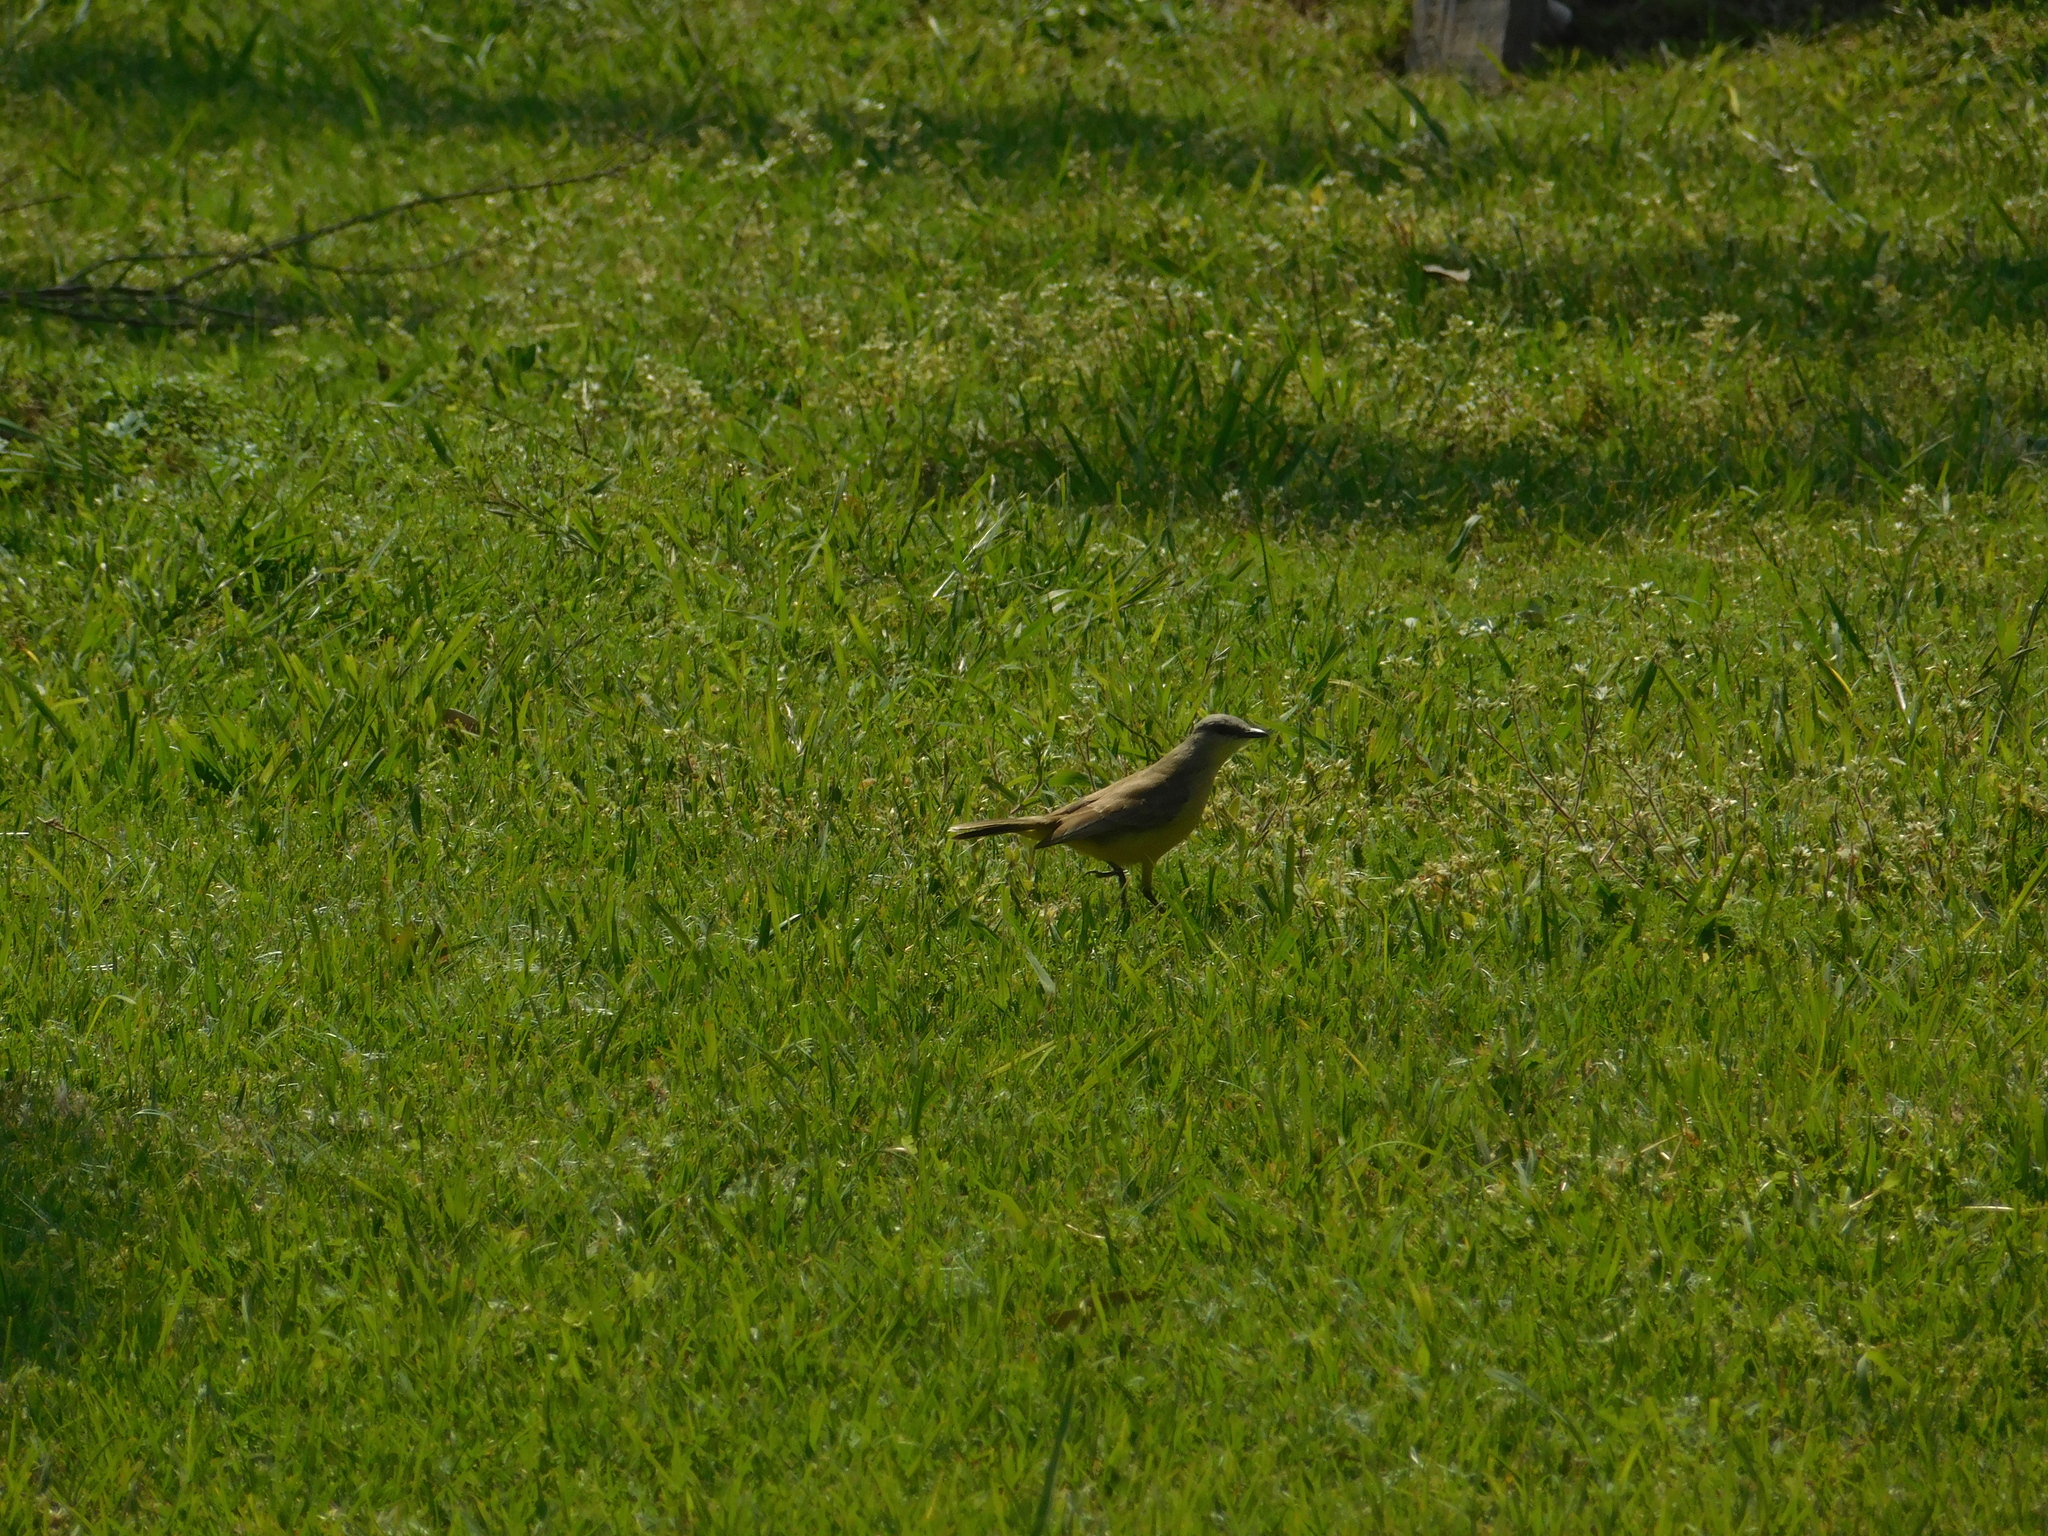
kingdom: Animalia
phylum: Chordata
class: Aves
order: Passeriformes
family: Tyrannidae
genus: Machetornis
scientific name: Machetornis rixosa
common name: Cattle tyrant
